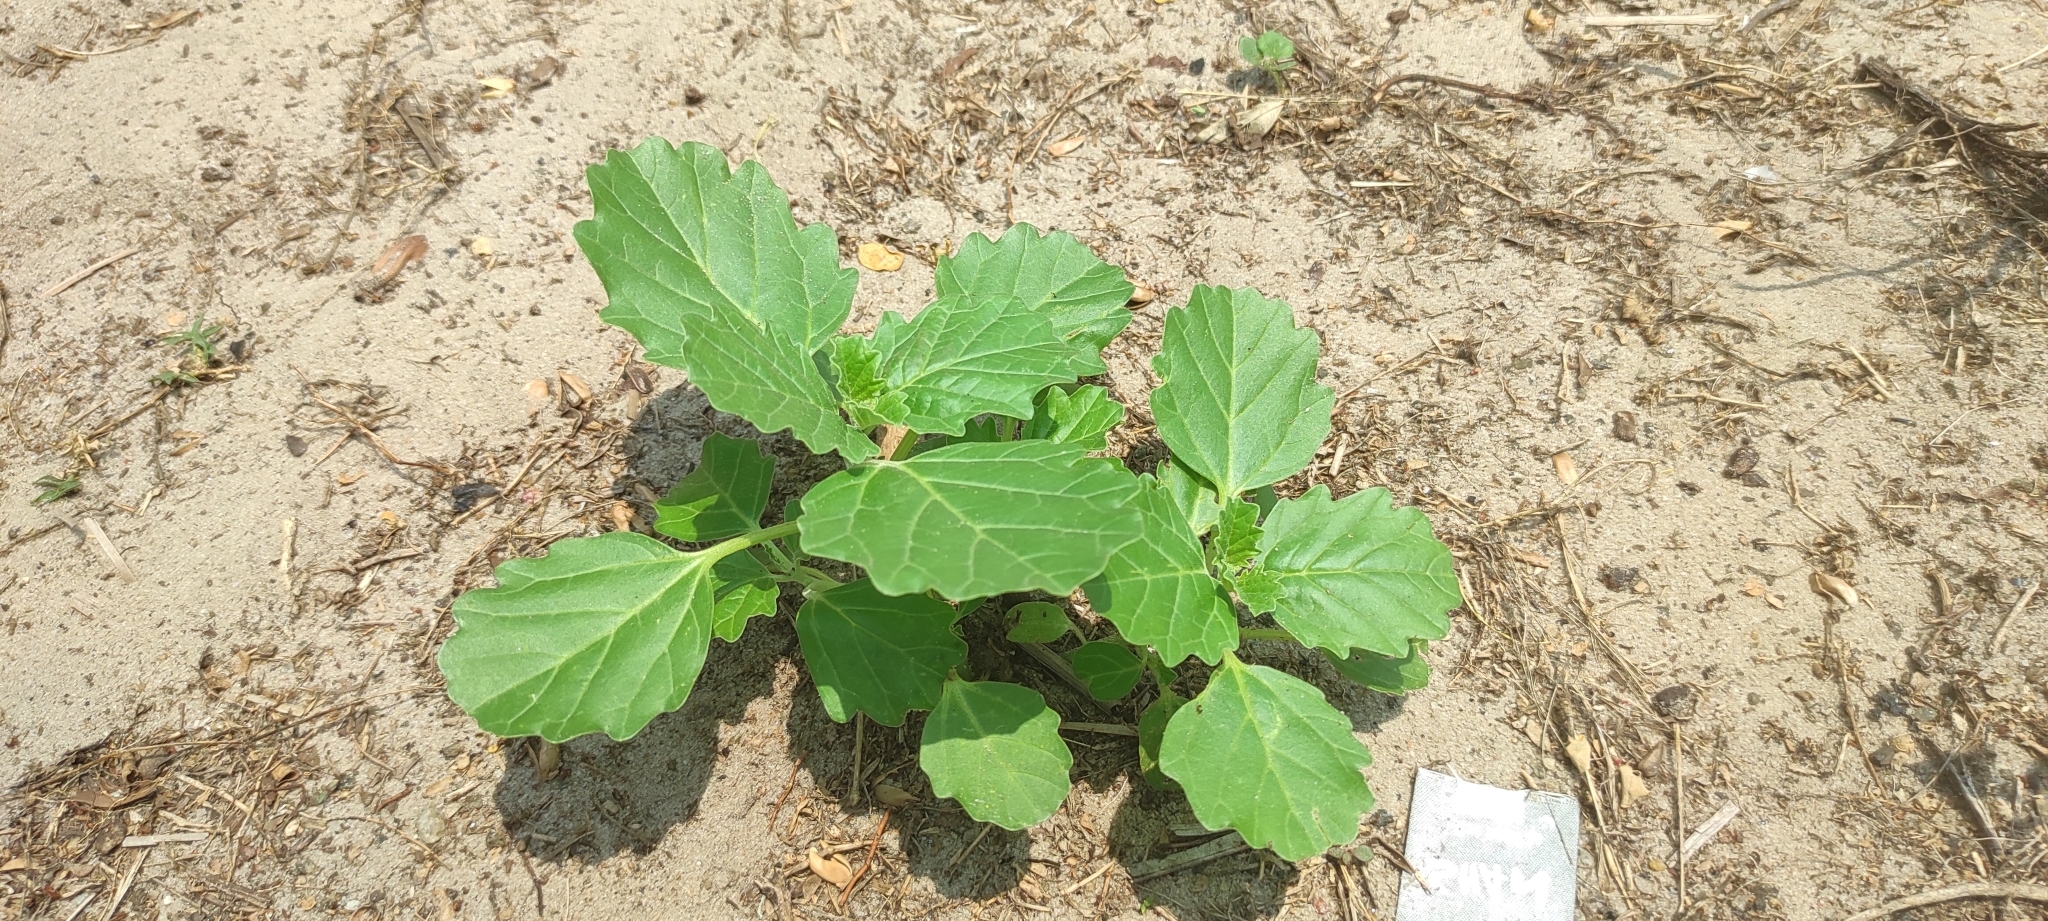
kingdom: Plantae
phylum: Tracheophyta
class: Magnoliopsida
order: Lamiales
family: Pedaliaceae
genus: Pedalium
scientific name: Pedalium murex
